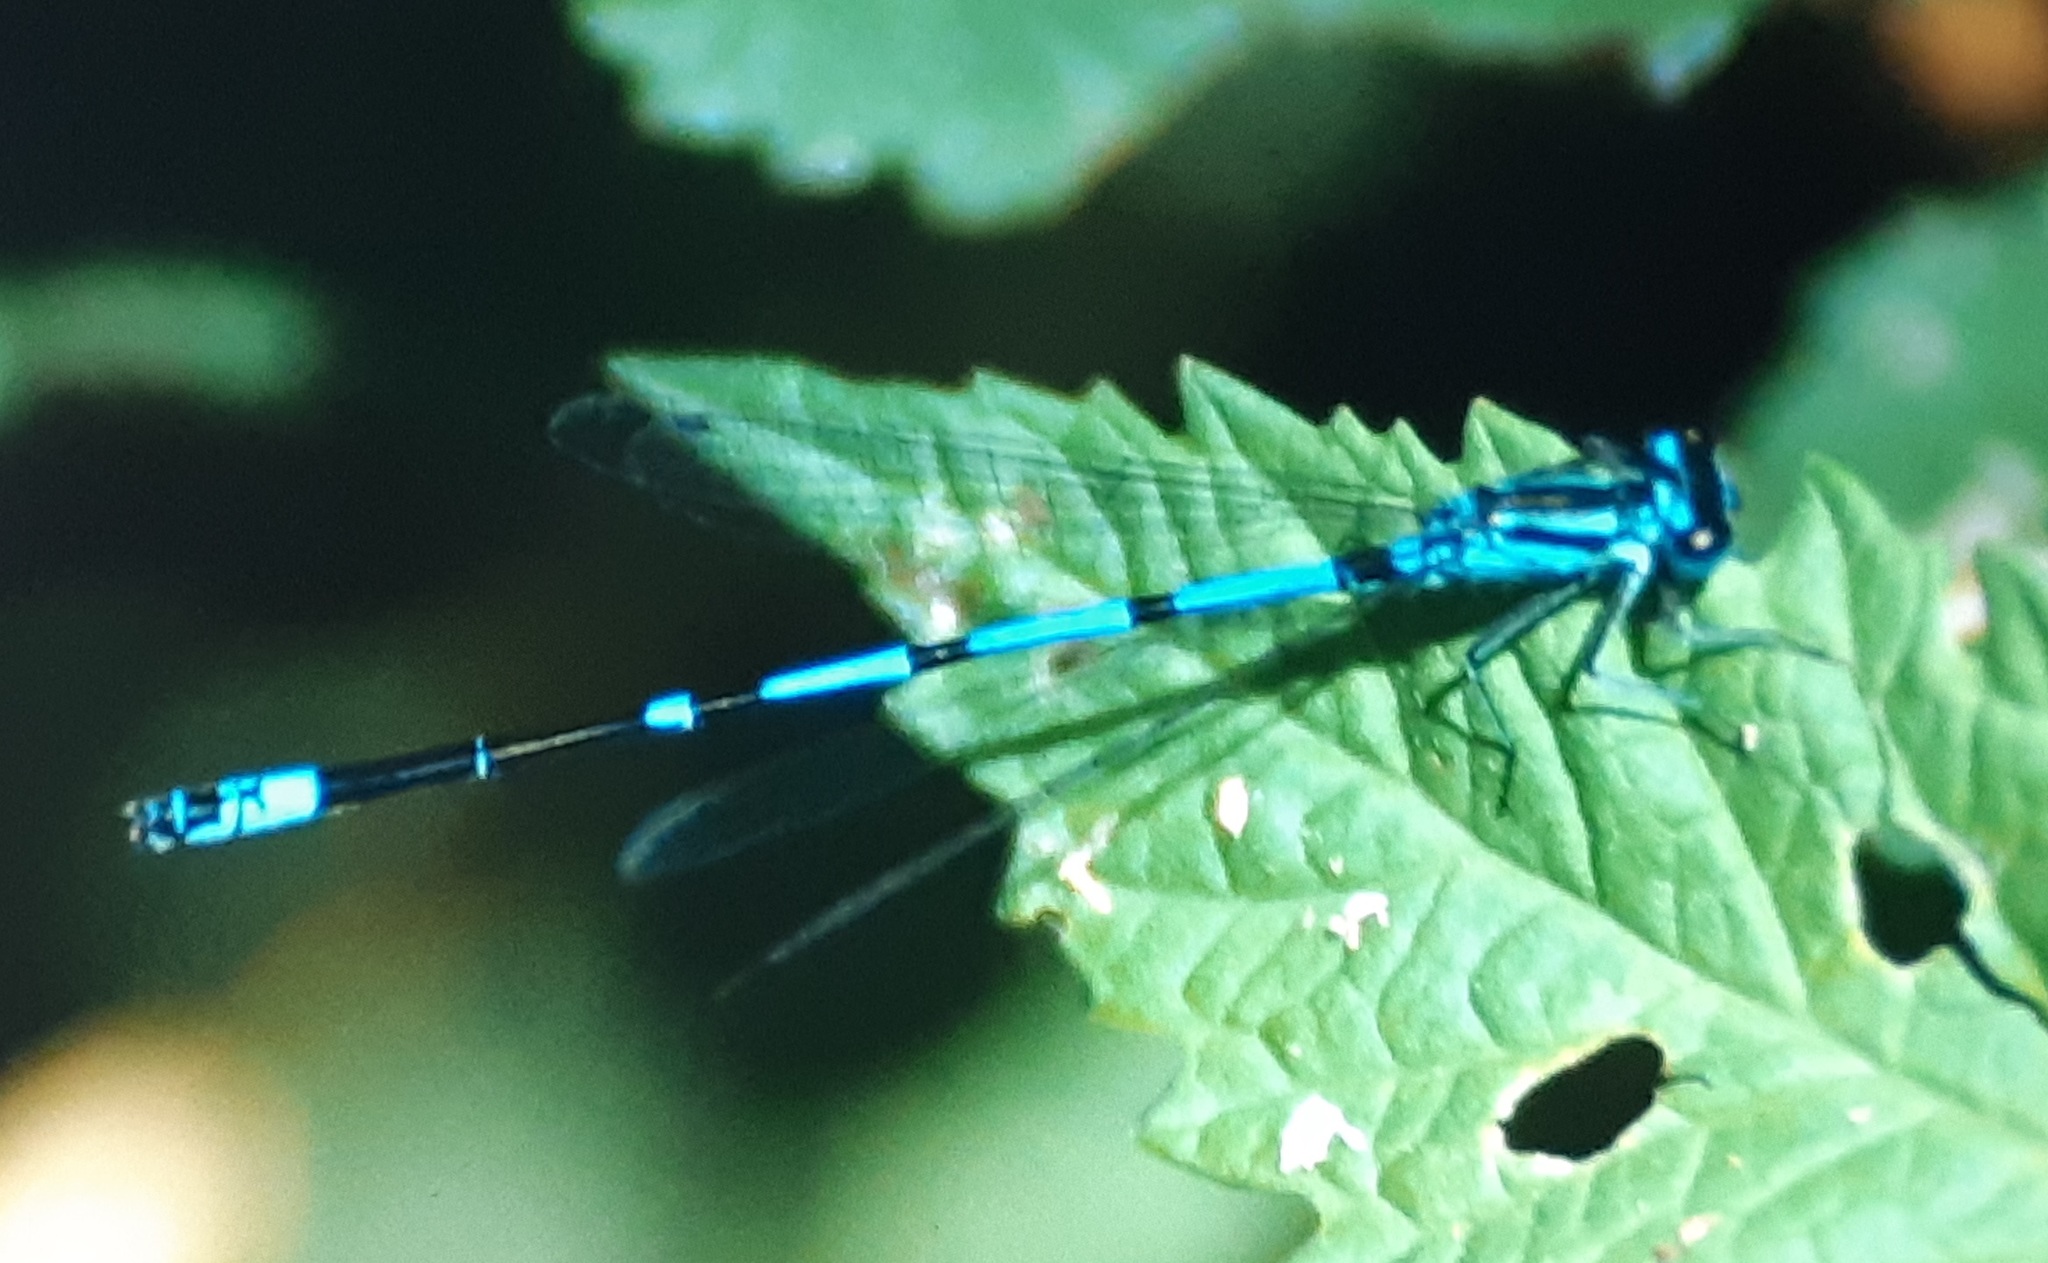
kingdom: Animalia
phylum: Arthropoda
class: Insecta
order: Odonata
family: Coenagrionidae
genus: Coenagrion
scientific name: Coenagrion pulchellum
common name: Variable bluet
